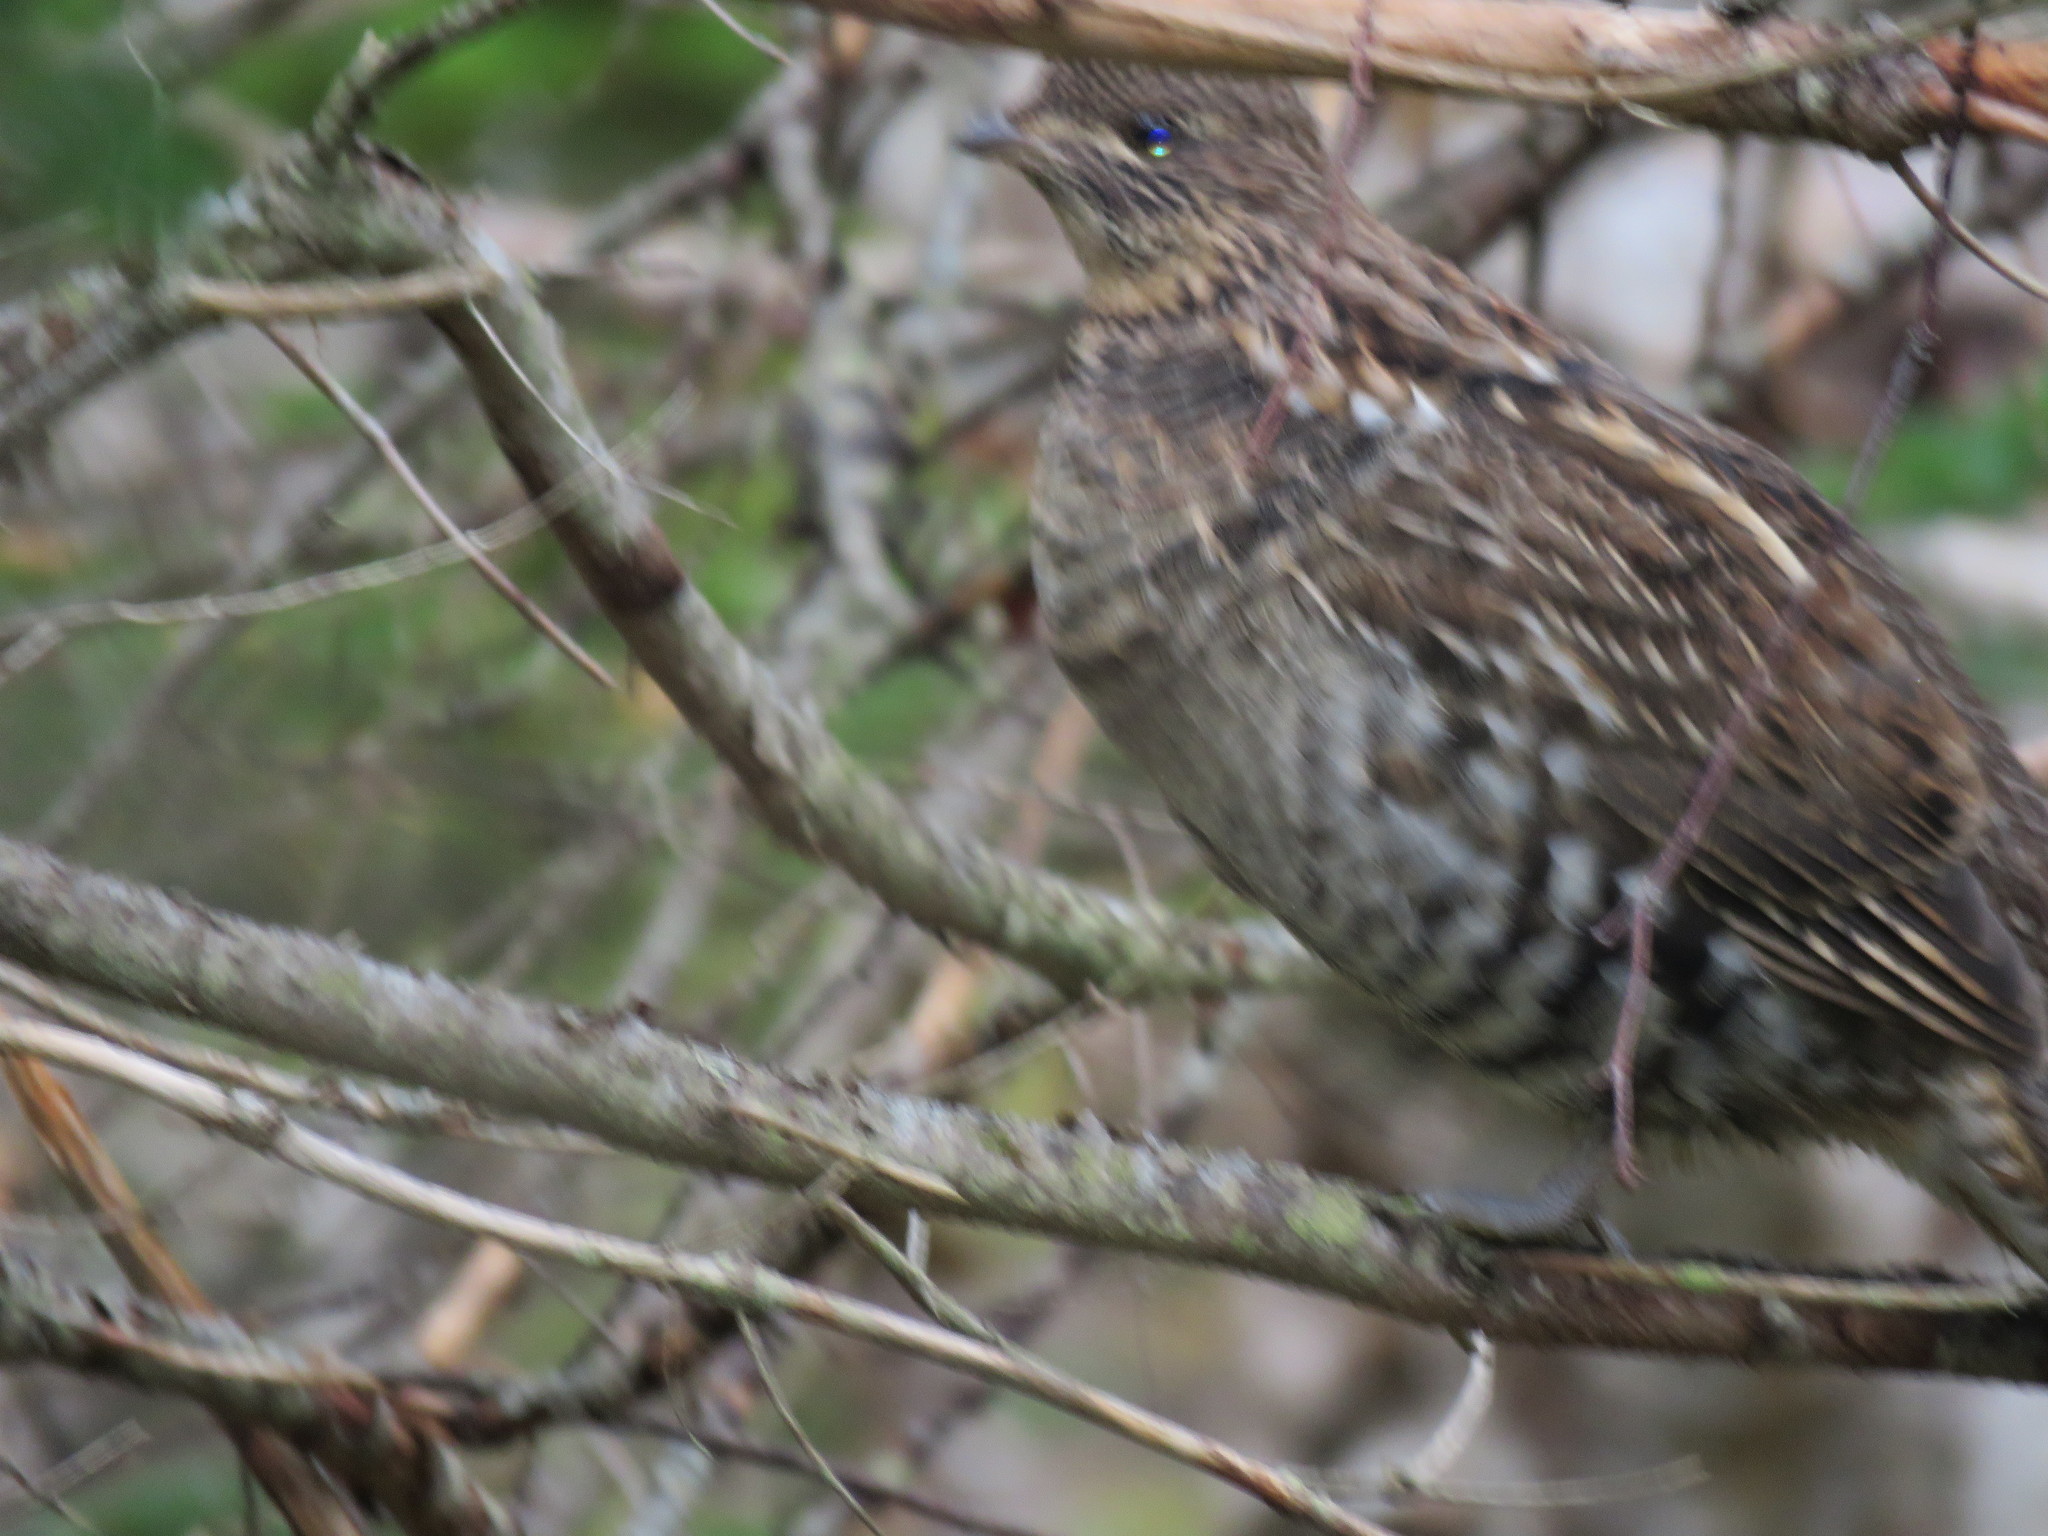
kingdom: Animalia
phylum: Chordata
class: Aves
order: Galliformes
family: Phasianidae
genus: Bonasa
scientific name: Bonasa umbellus
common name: Ruffed grouse
